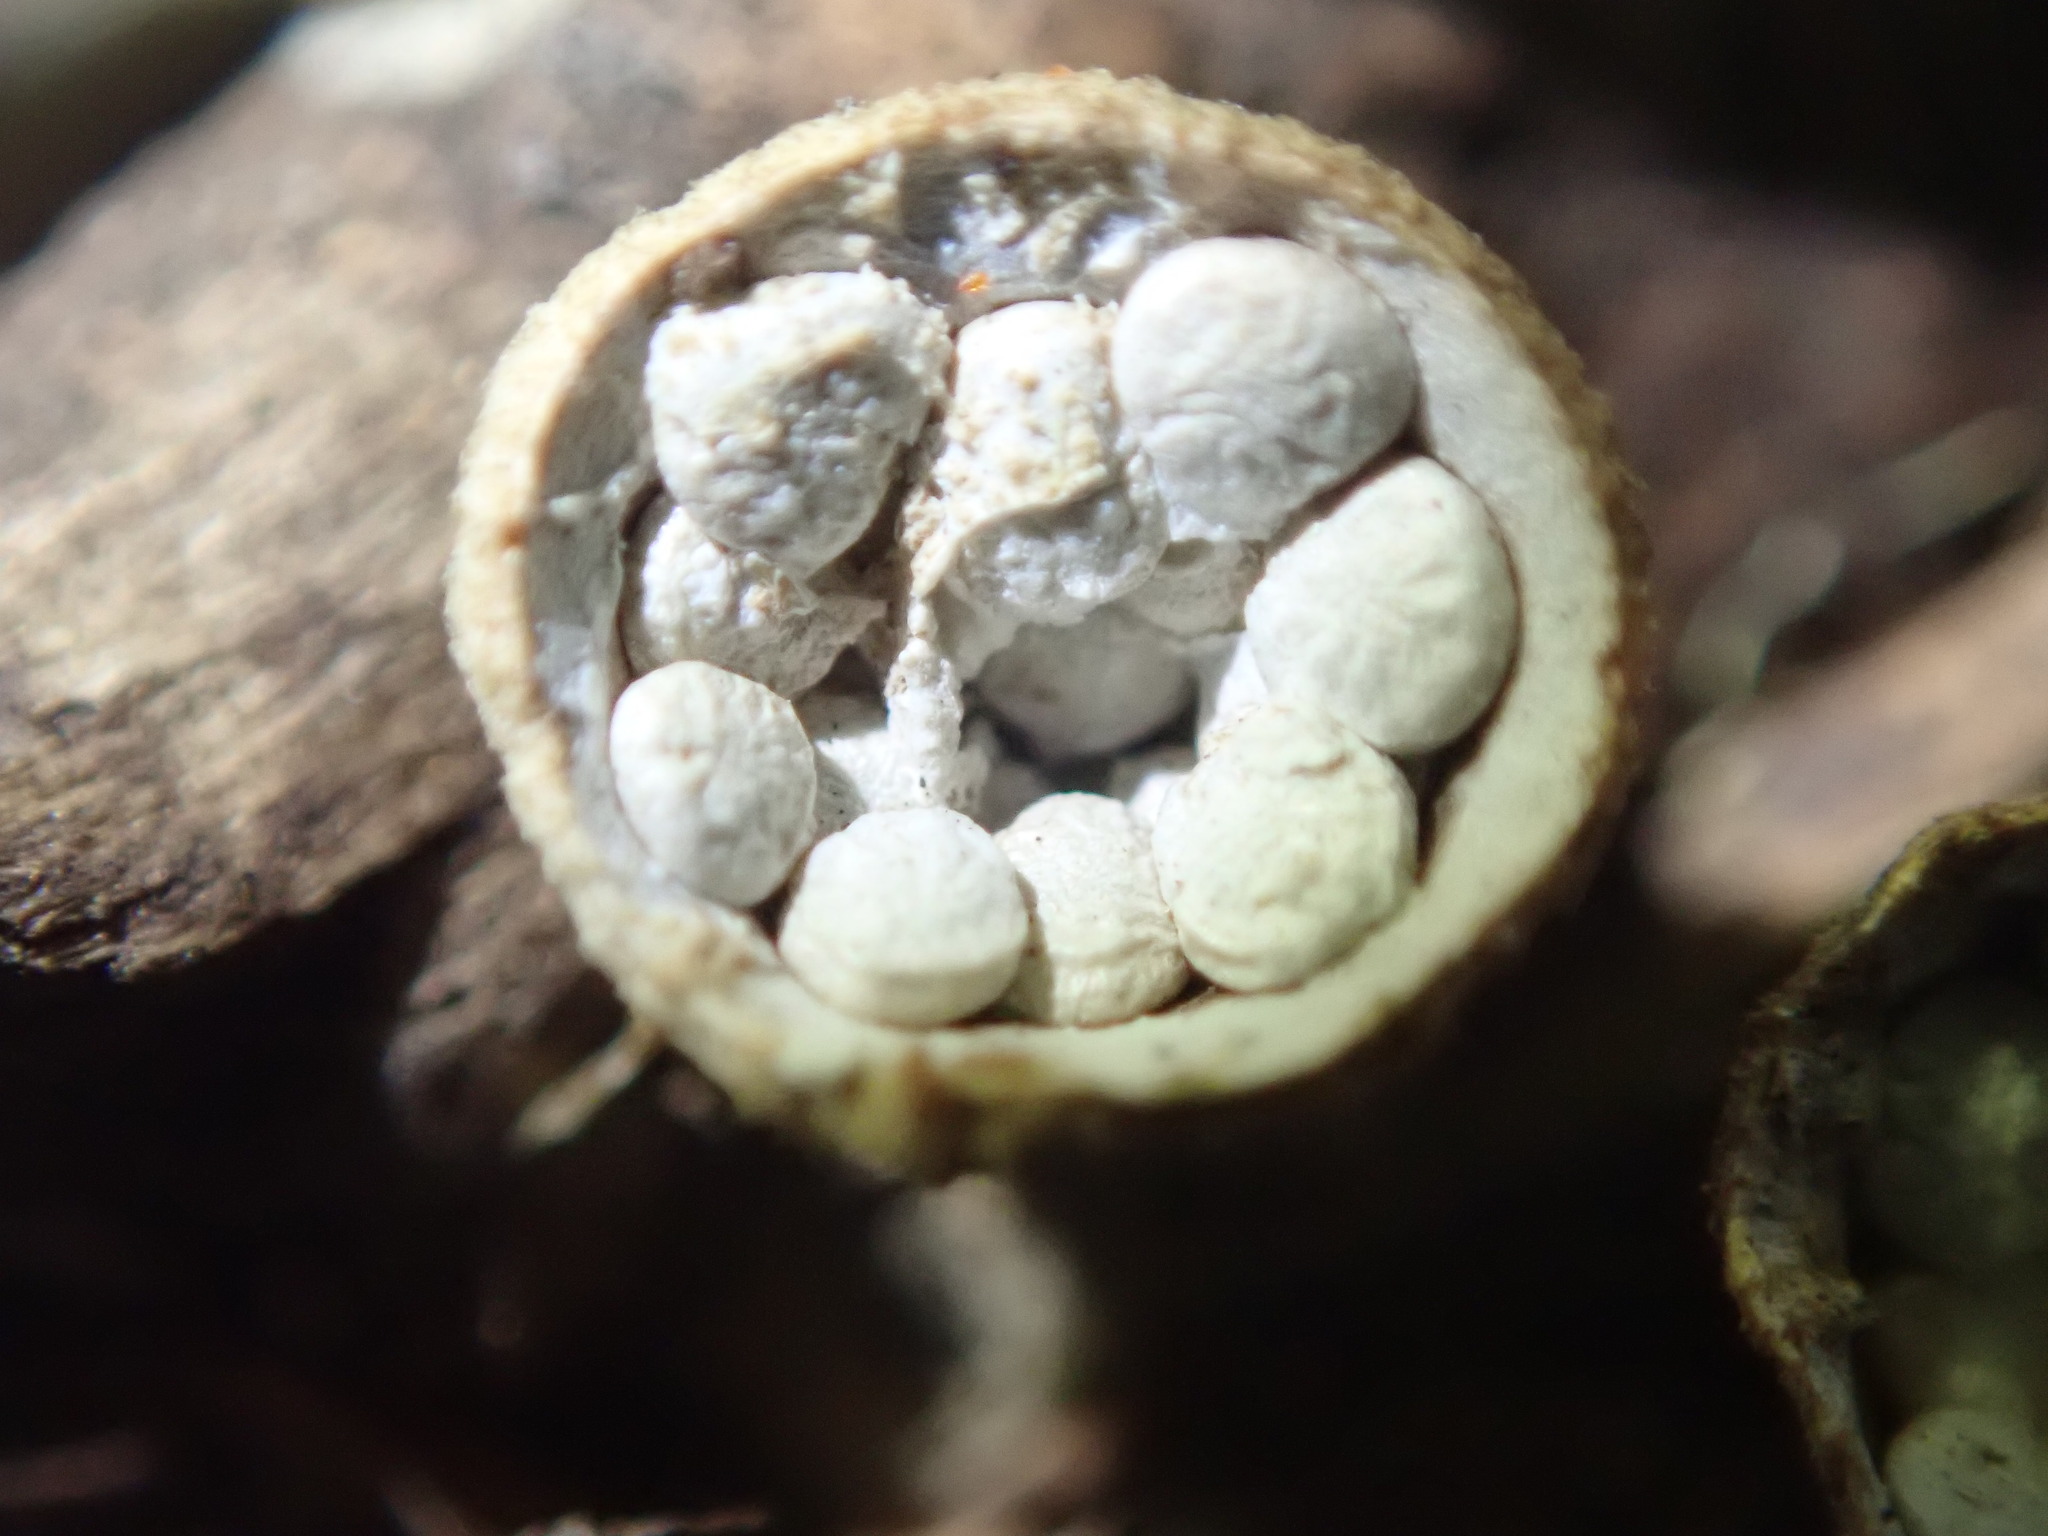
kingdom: Fungi
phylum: Basidiomycota
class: Agaricomycetes
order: Agaricales
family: Nidulariaceae
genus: Crucibulum
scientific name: Crucibulum laeve
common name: Common bird's nest
